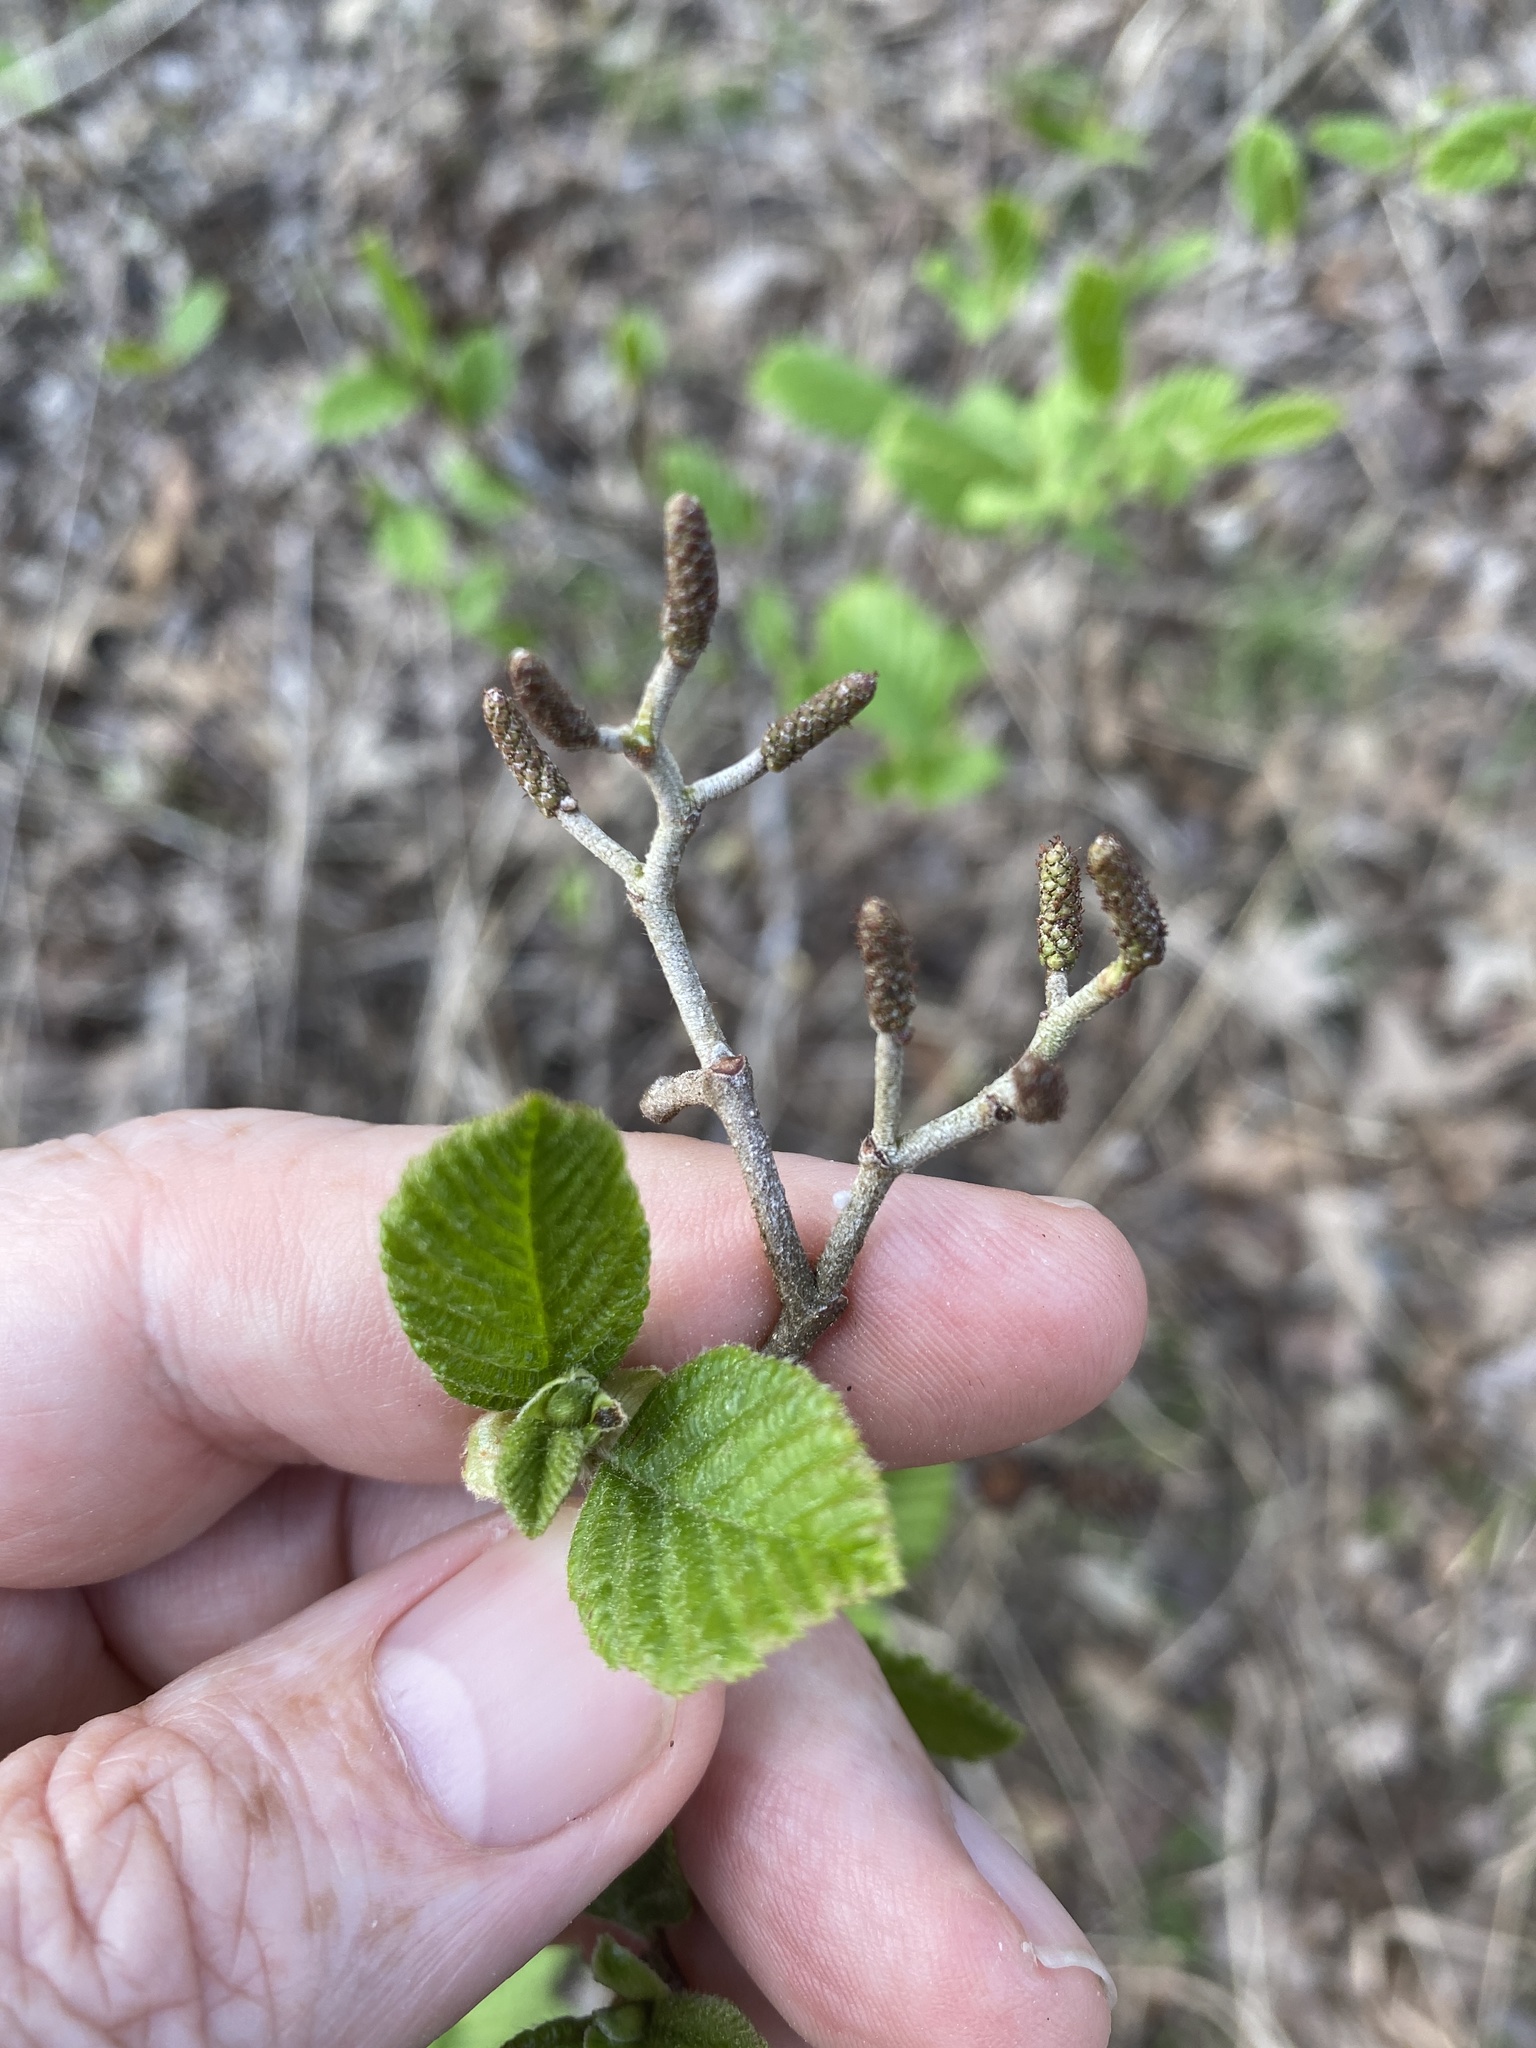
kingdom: Plantae
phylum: Tracheophyta
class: Magnoliopsida
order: Fagales
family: Betulaceae
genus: Alnus
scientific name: Alnus serrulata
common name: Hazel alder
